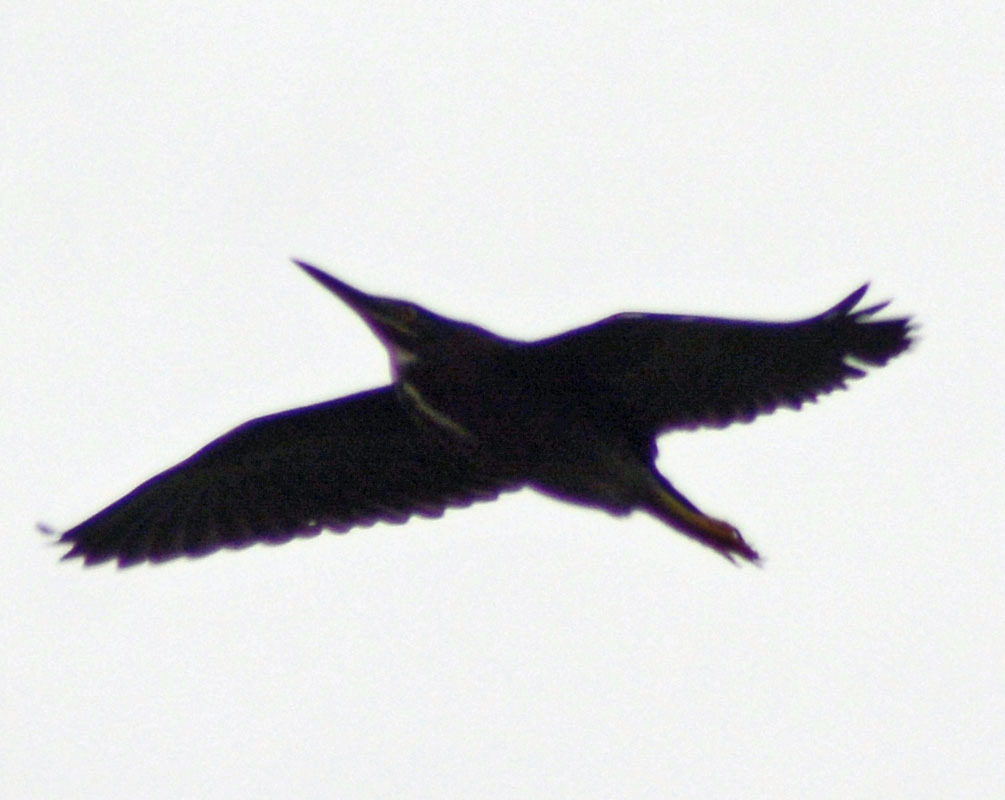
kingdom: Animalia
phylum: Chordata
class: Aves
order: Pelecaniformes
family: Ardeidae
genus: Butorides
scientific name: Butorides virescens
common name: Green heron
